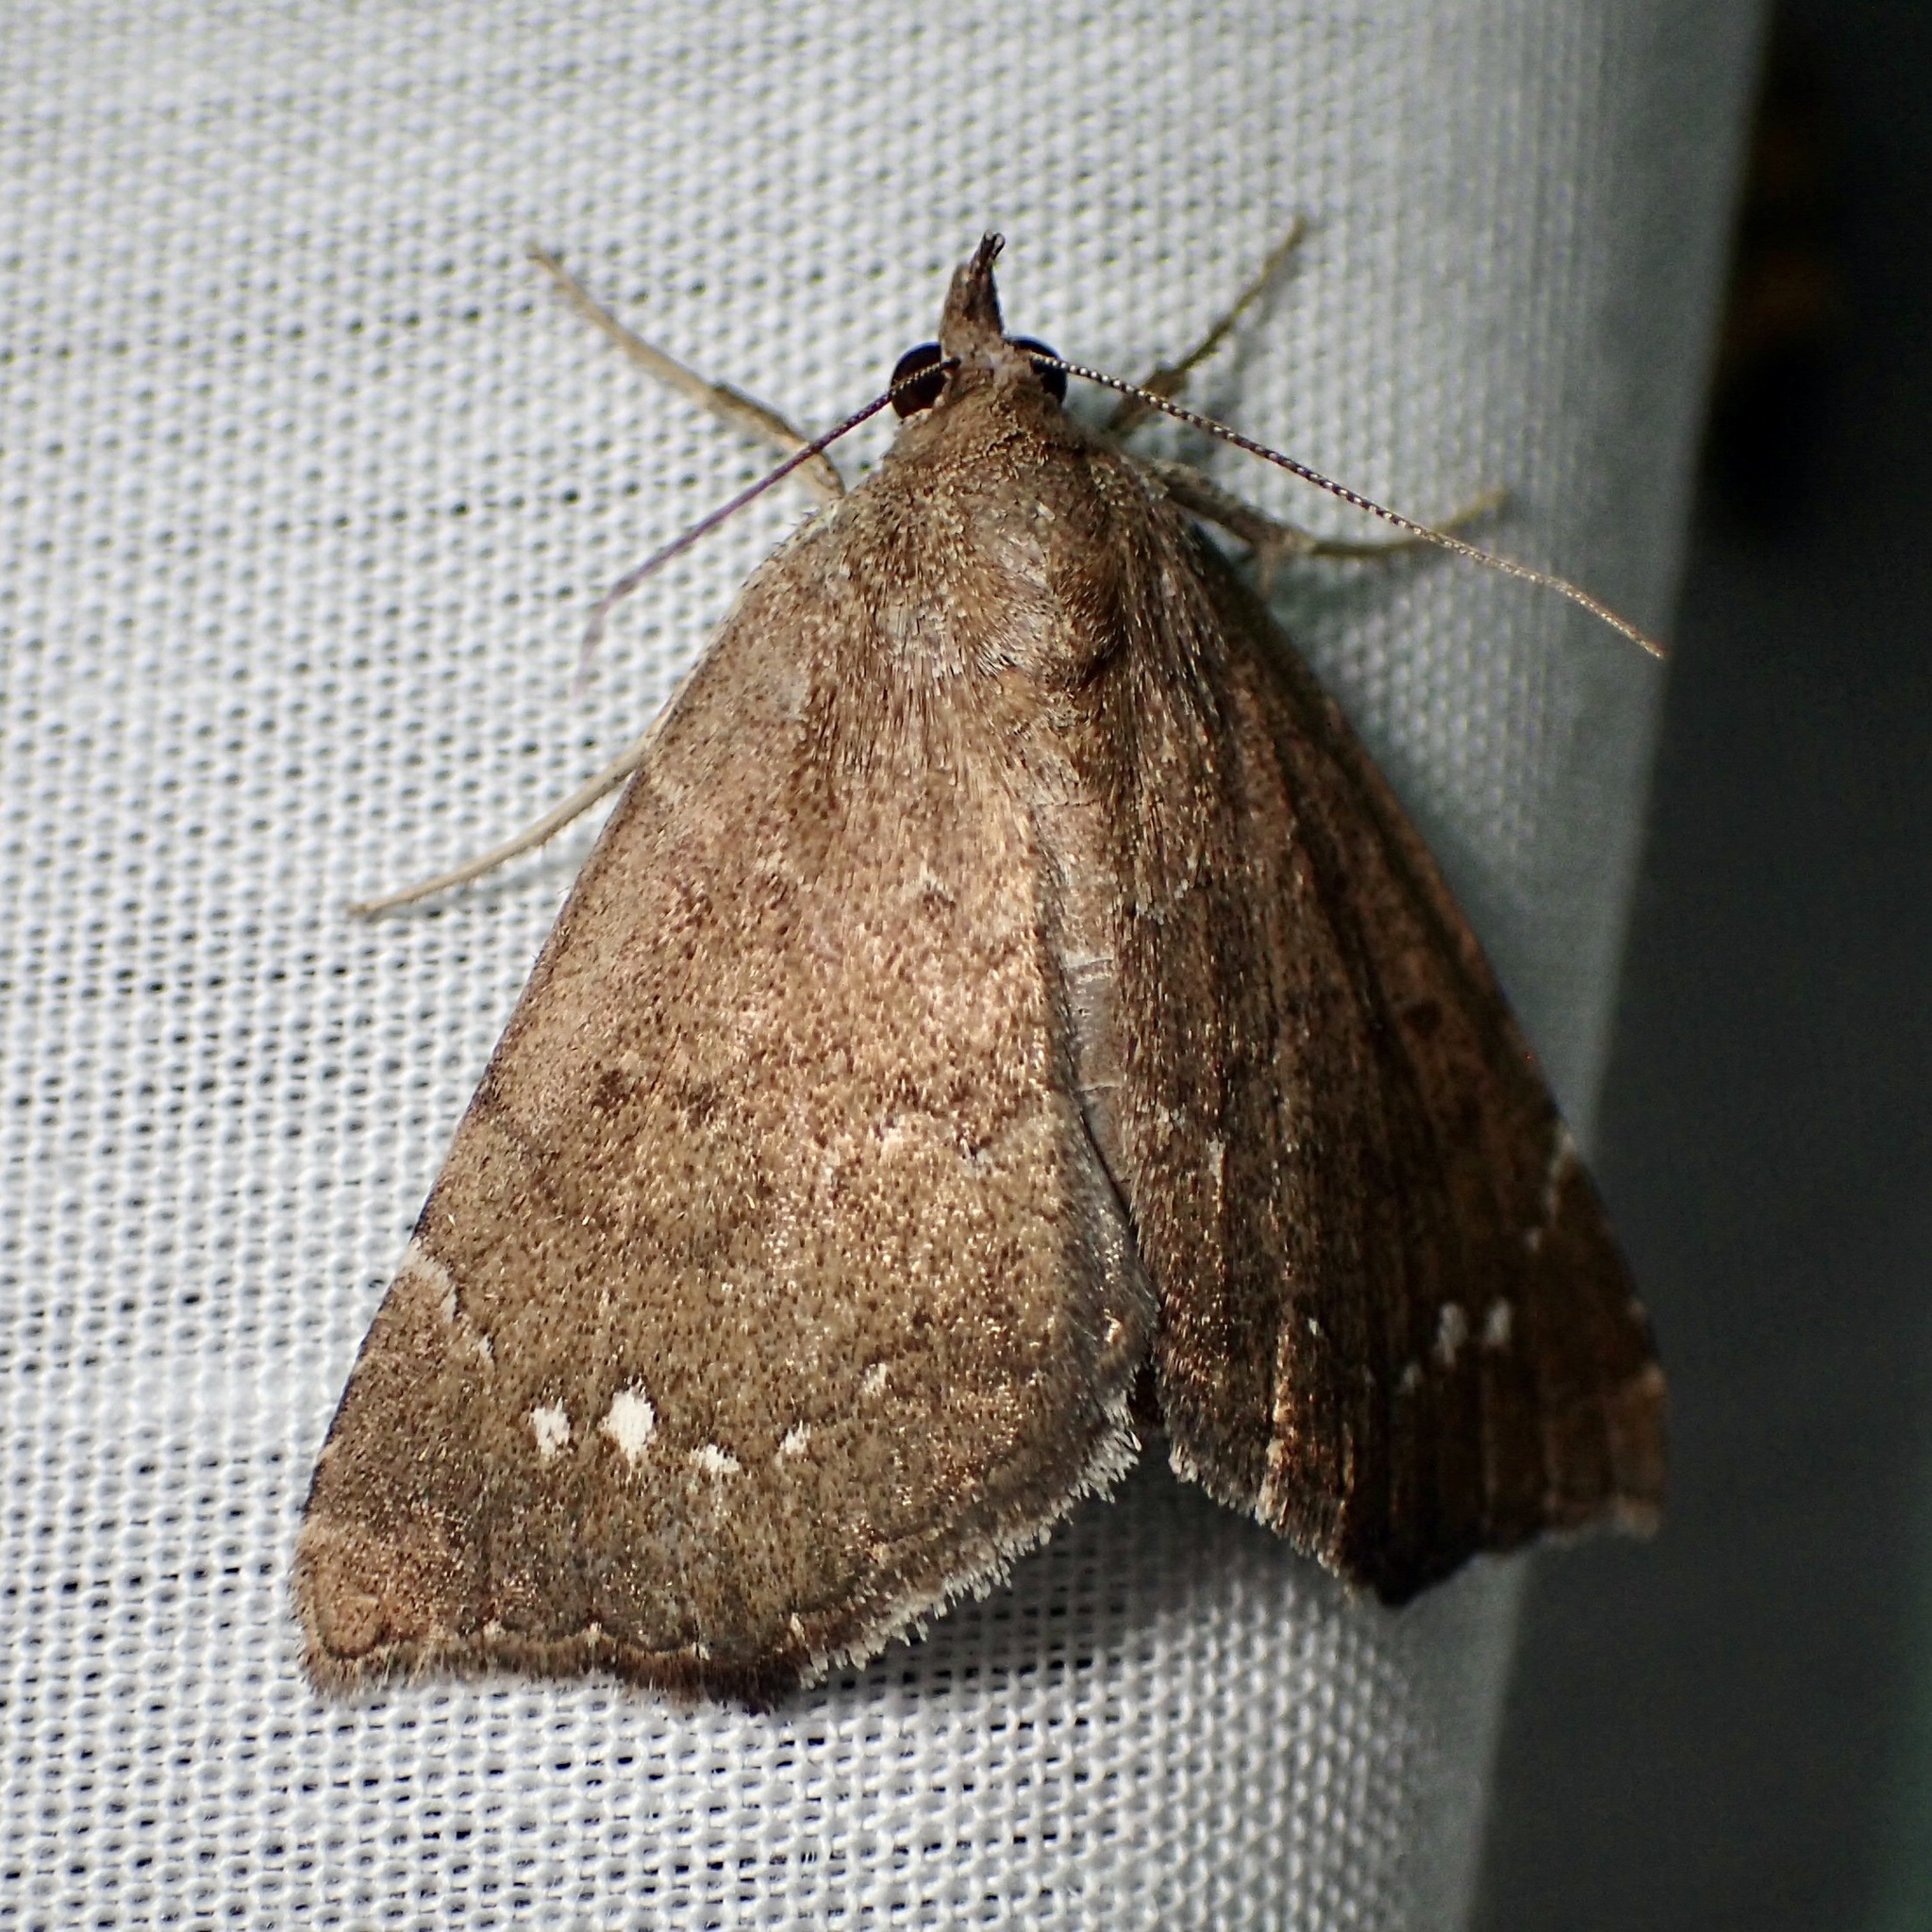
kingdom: Animalia
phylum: Arthropoda
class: Insecta
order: Lepidoptera
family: Erebidae
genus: Focillidia
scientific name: Focillidia texana
